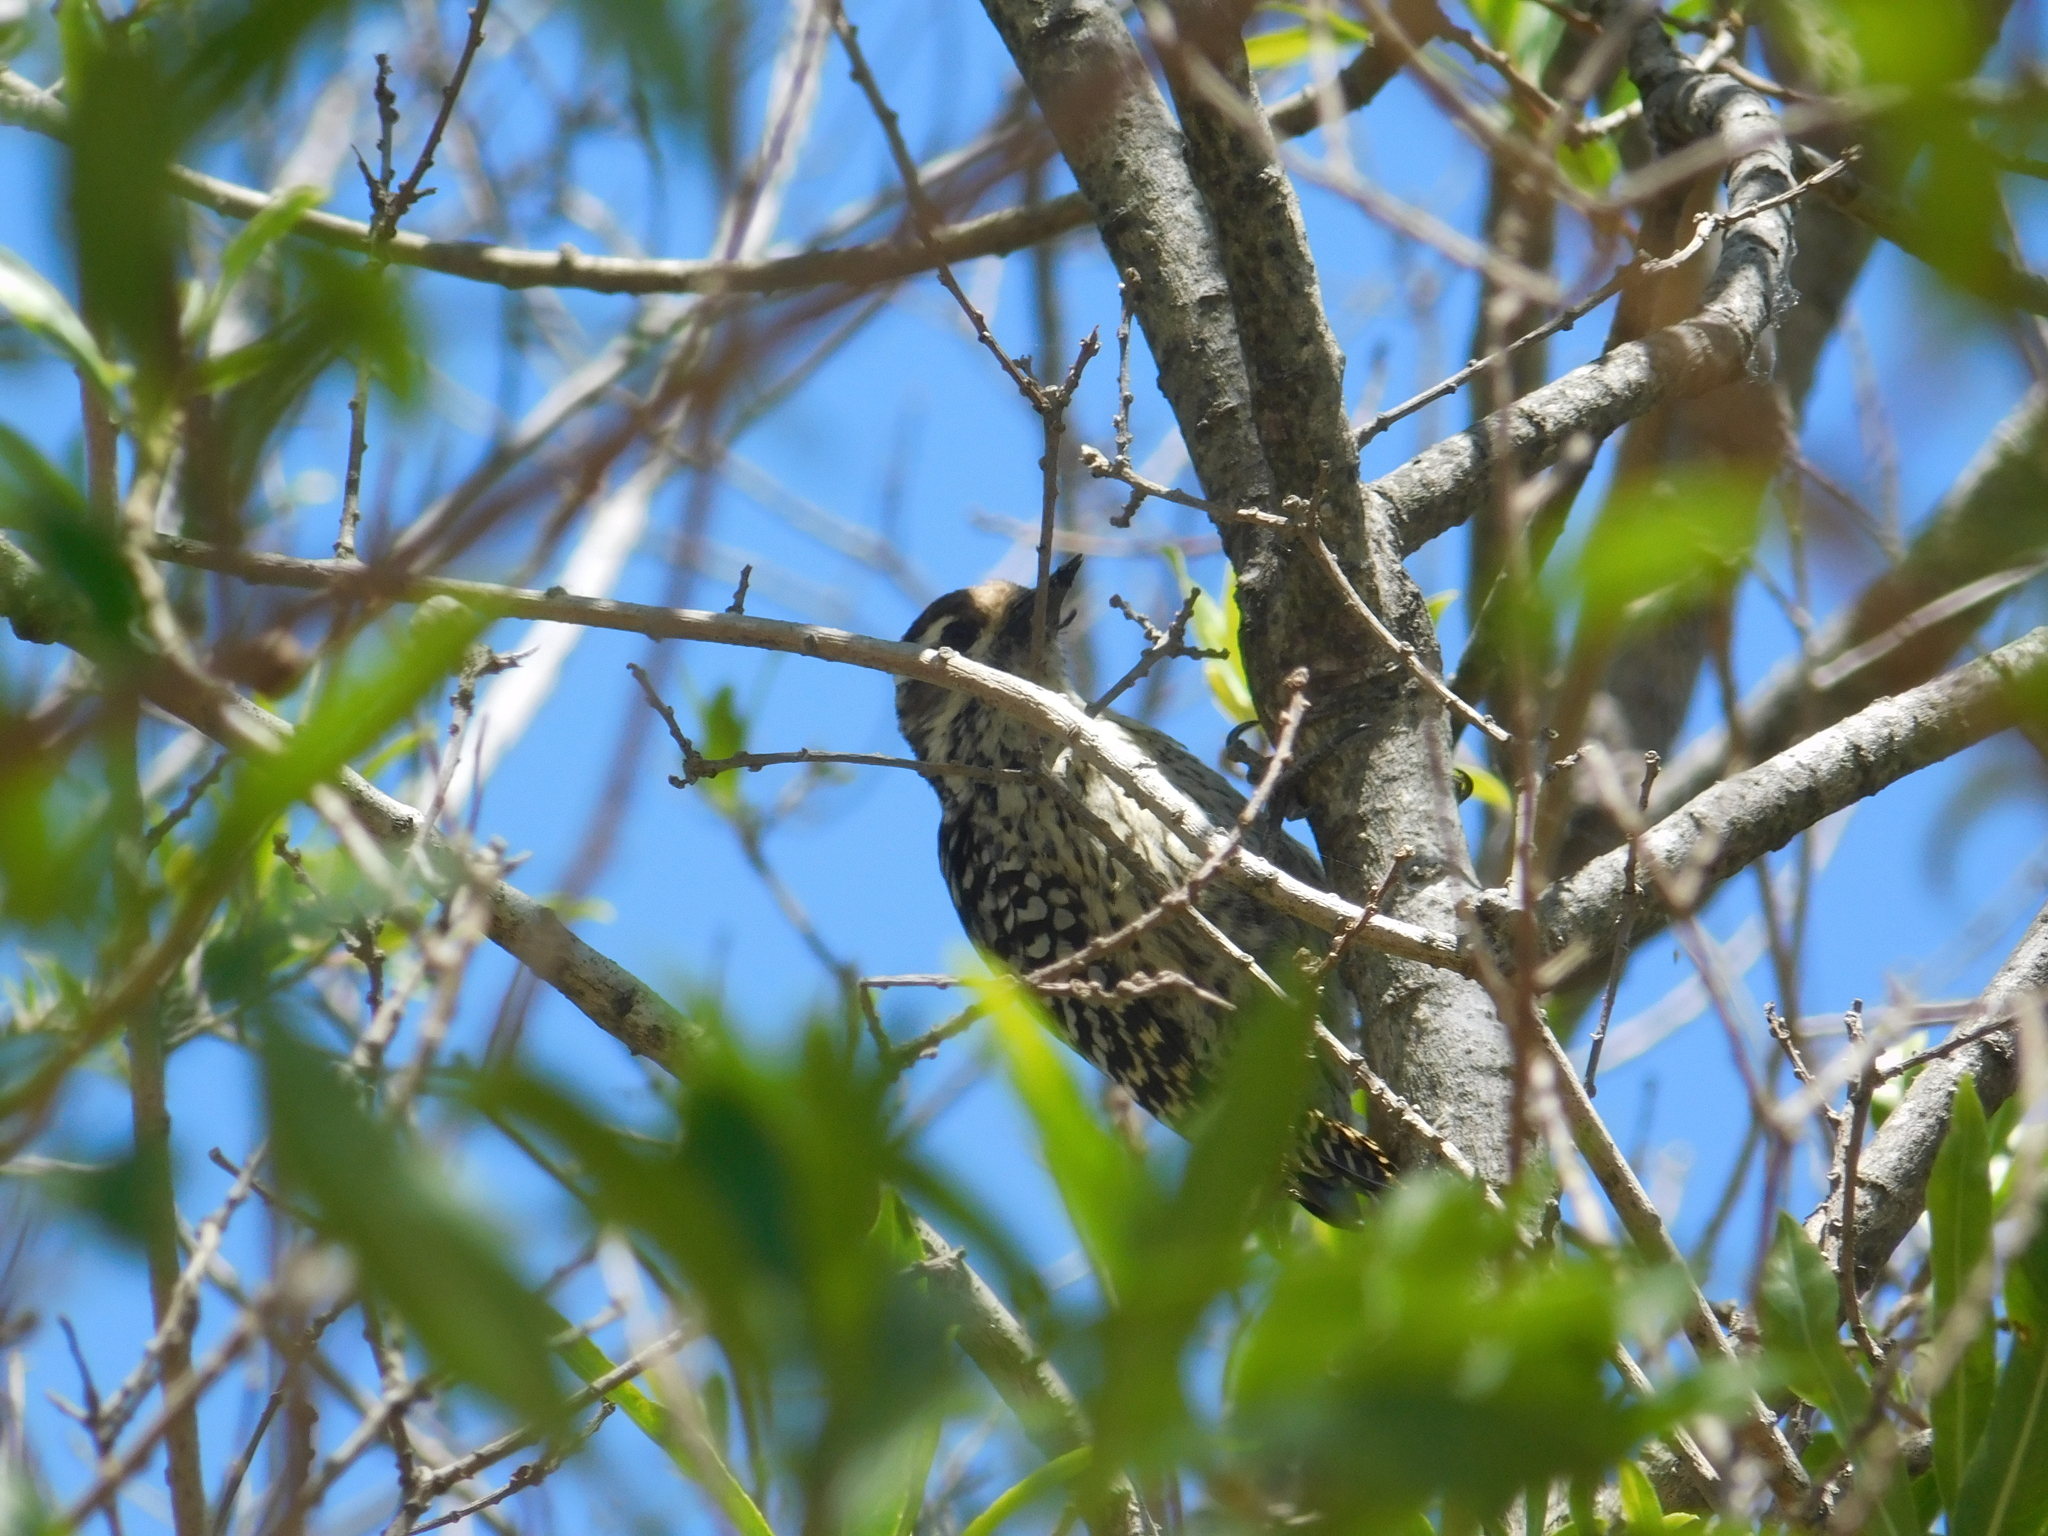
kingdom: Animalia
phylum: Chordata
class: Aves
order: Piciformes
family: Picidae
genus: Veniliornis
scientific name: Veniliornis mixtus
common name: Checkered woodpecker
